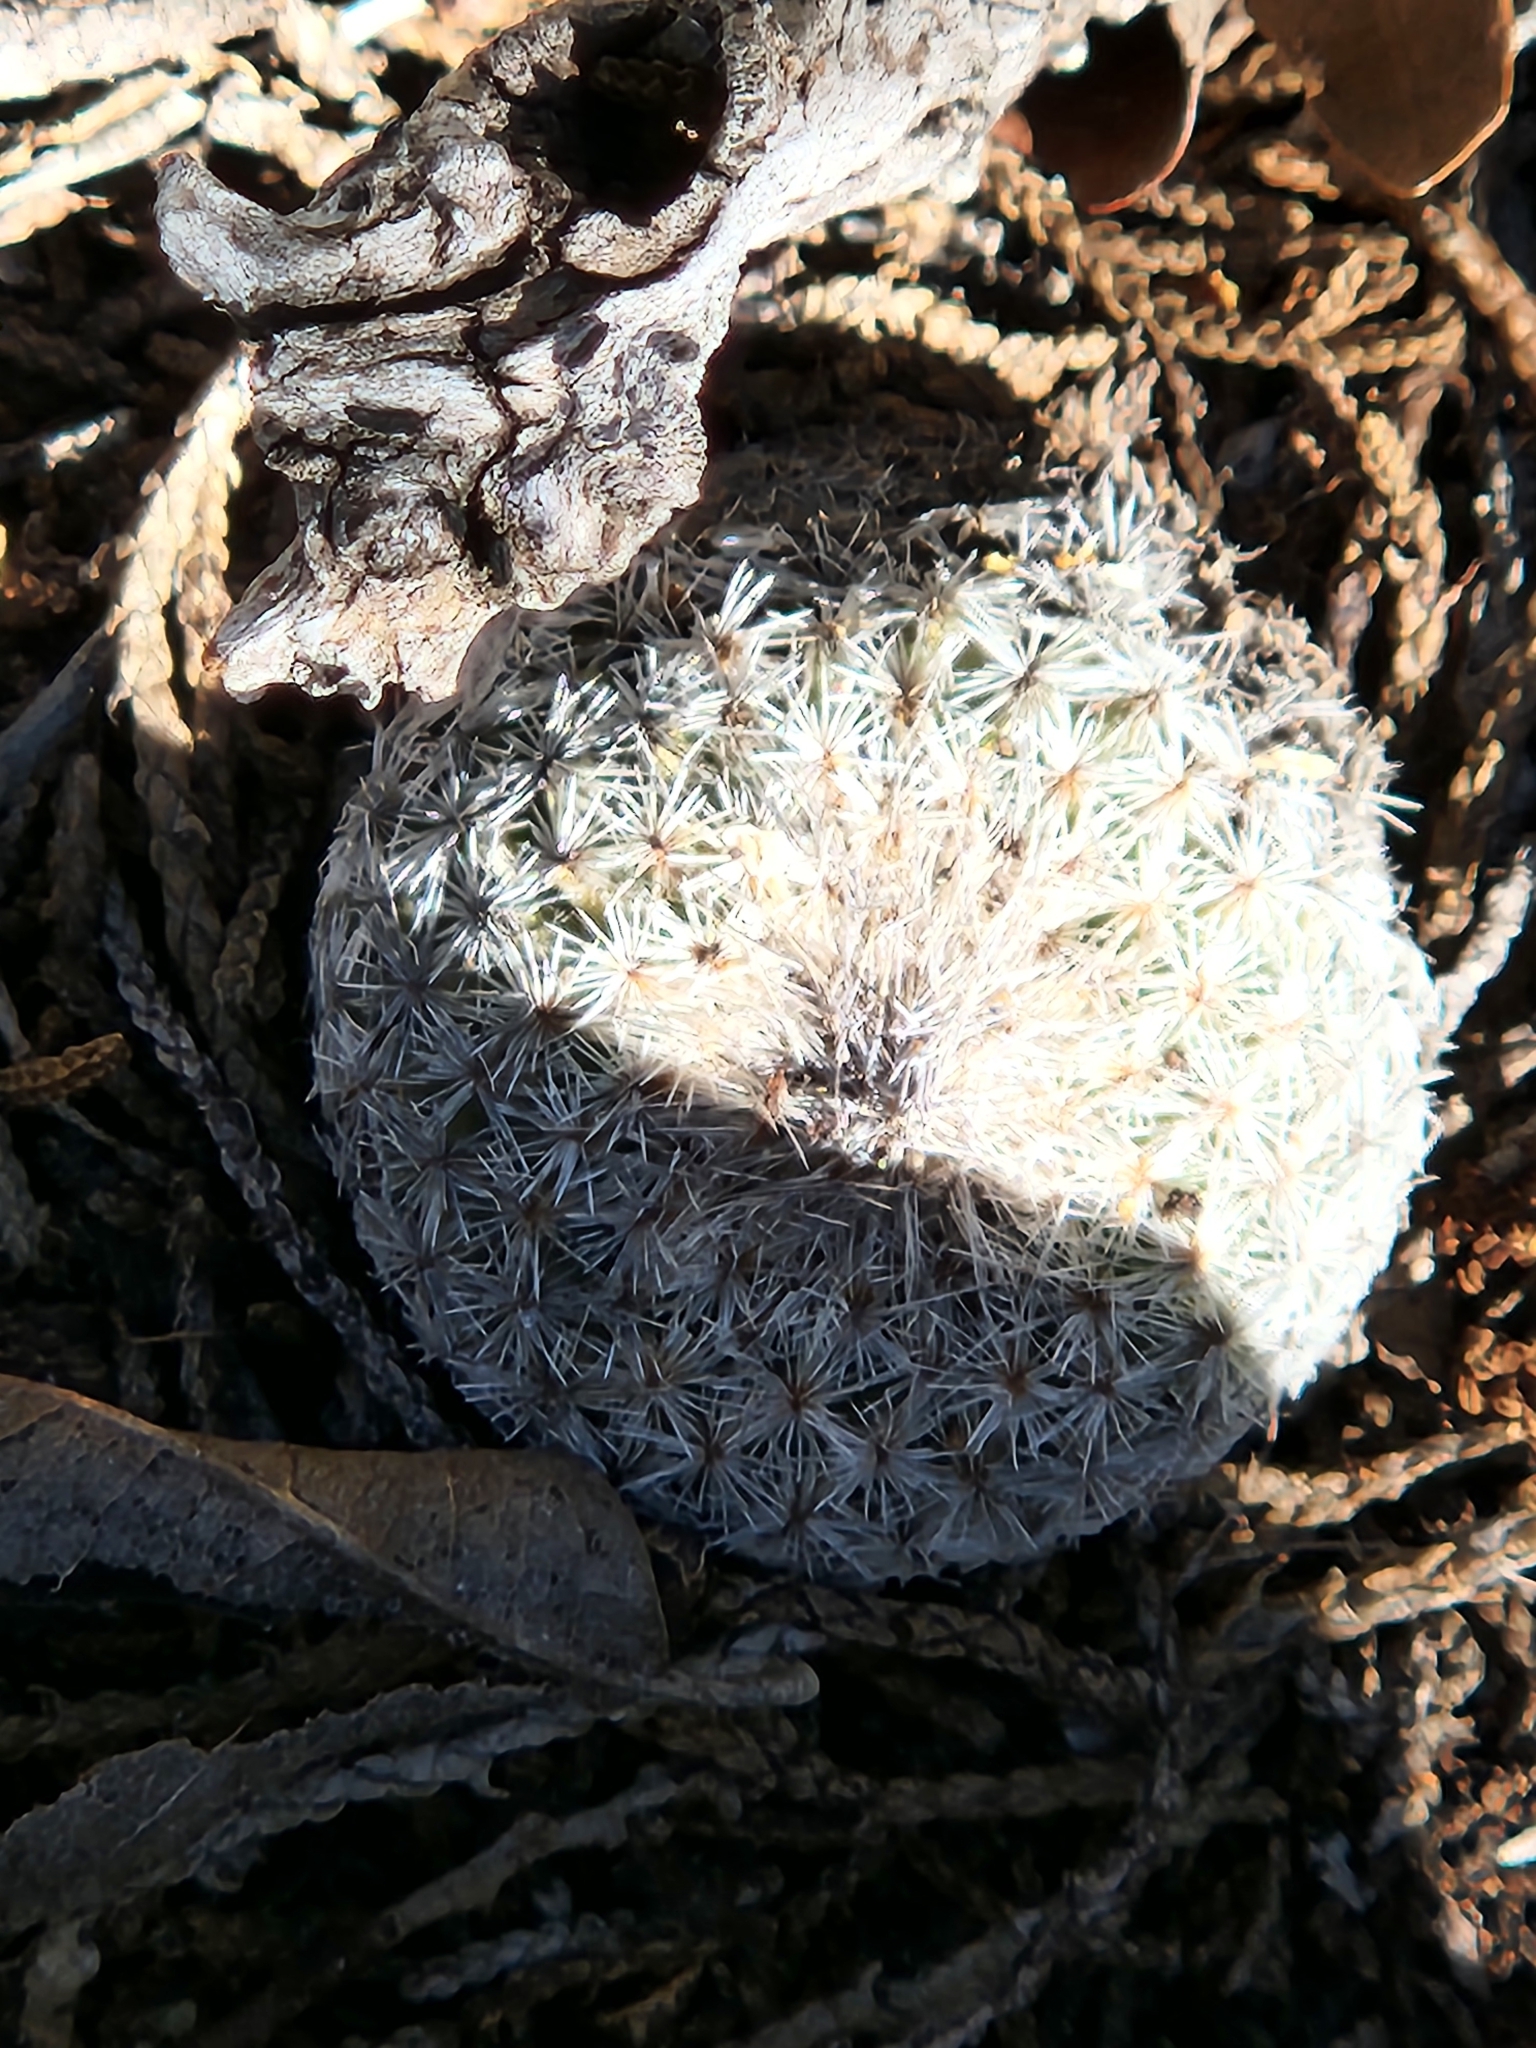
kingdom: Plantae
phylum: Tracheophyta
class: Magnoliopsida
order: Caryophyllales
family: Cactaceae
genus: Epithelantha
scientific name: Epithelantha micromeris
